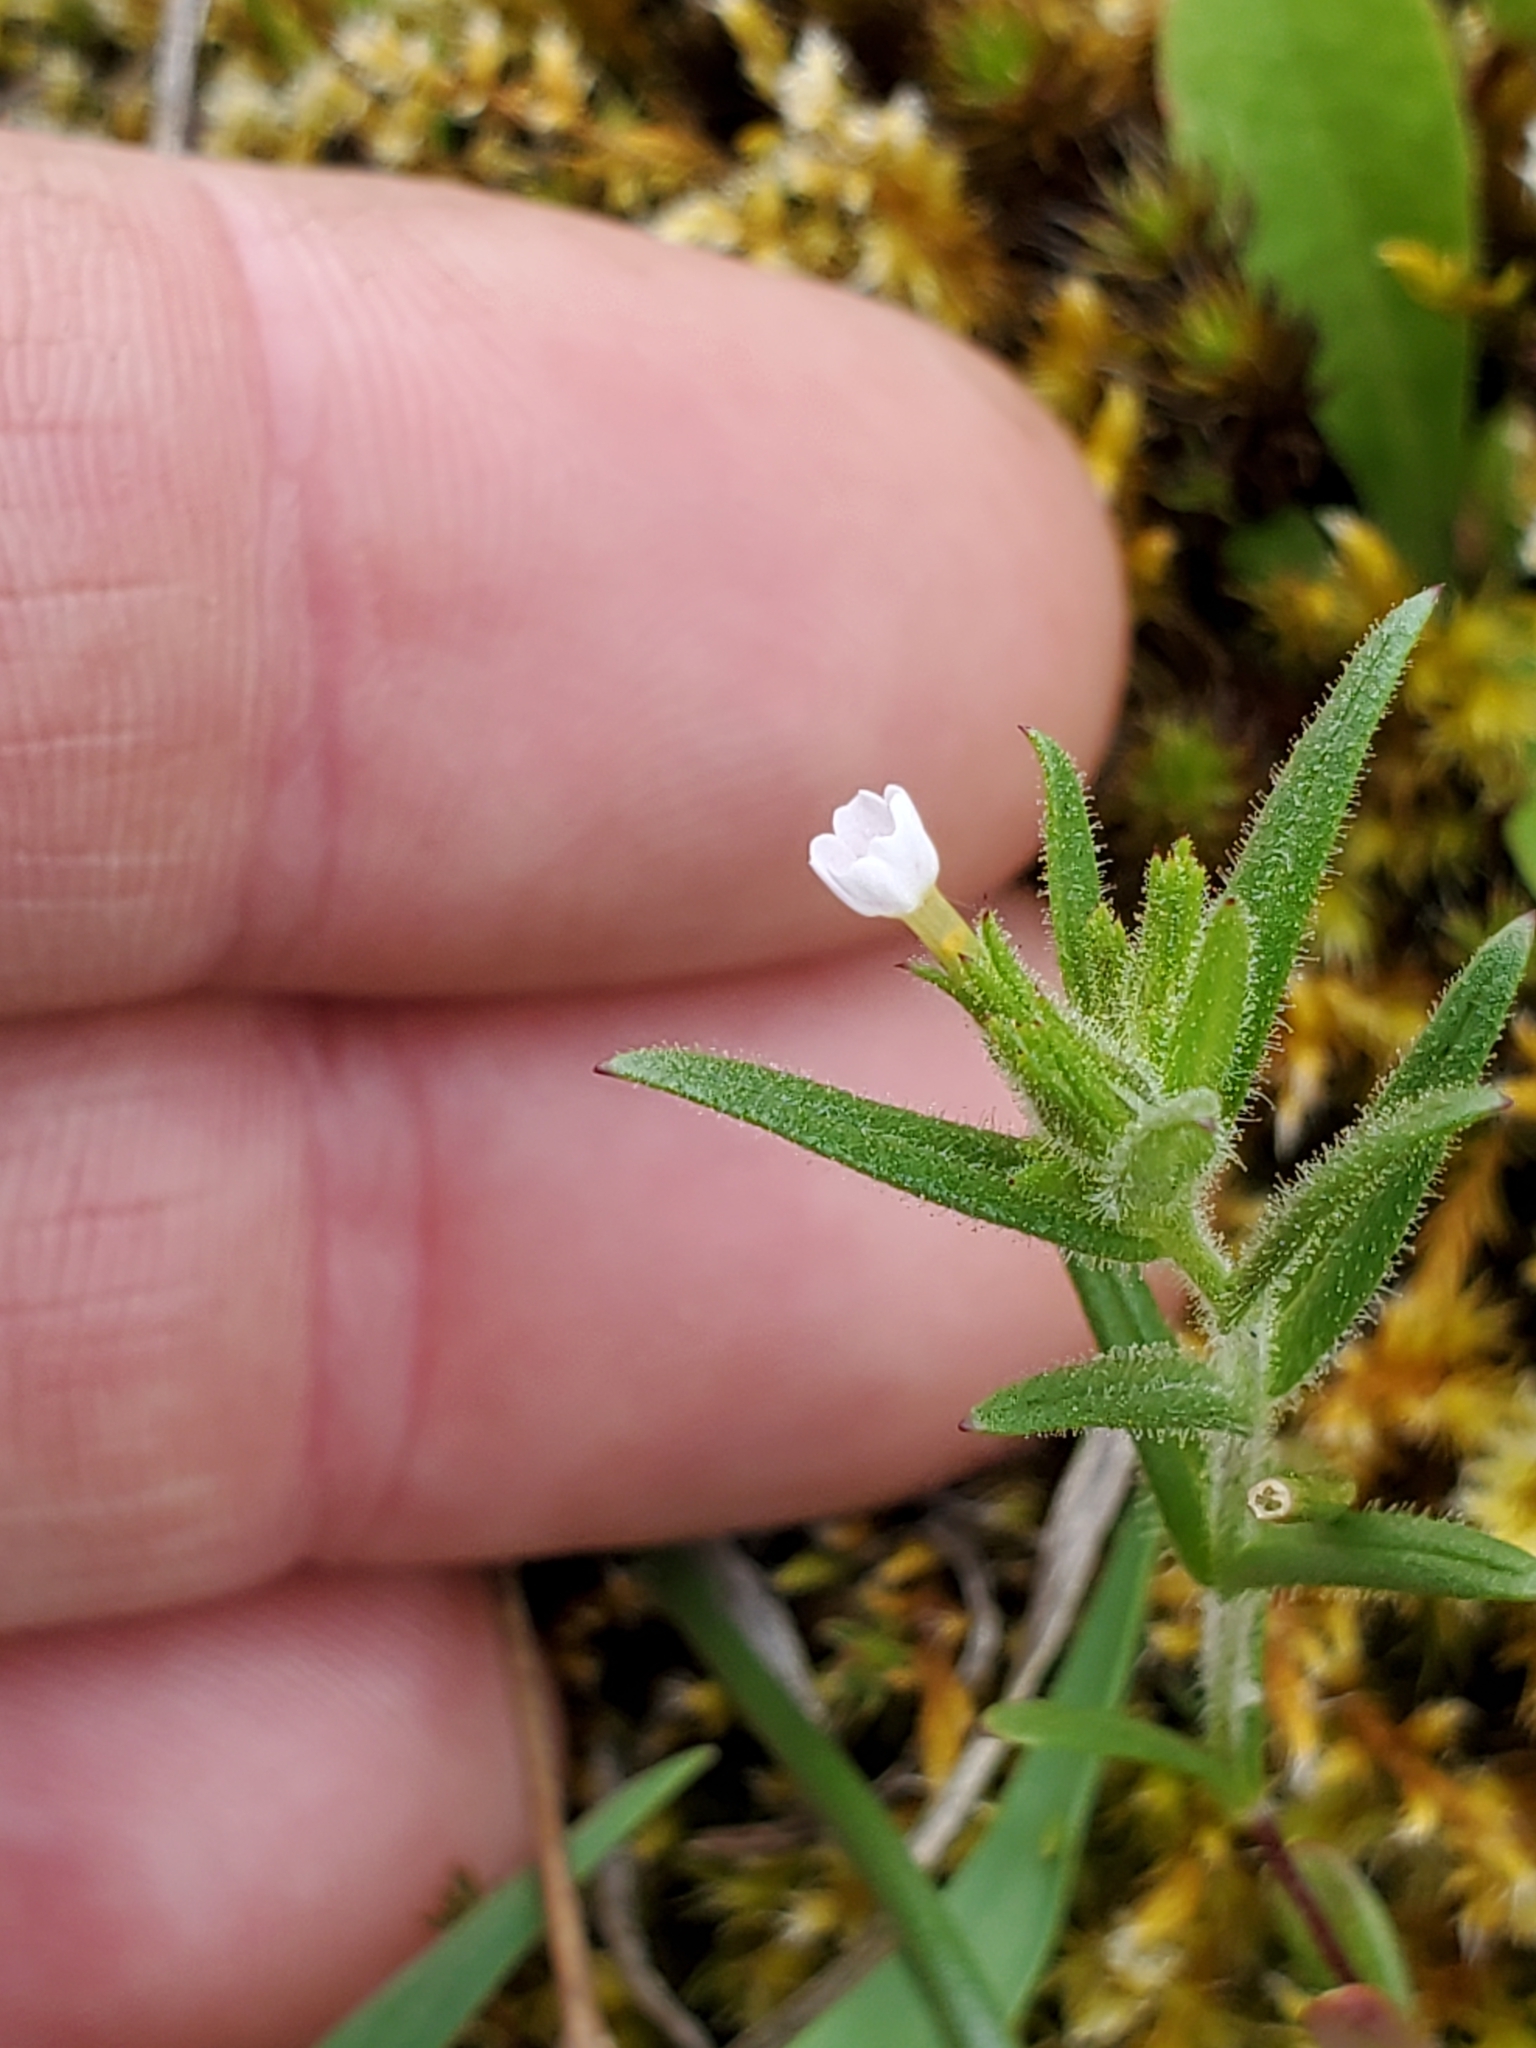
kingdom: Plantae
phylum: Tracheophyta
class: Magnoliopsida
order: Ericales
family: Polemoniaceae
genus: Phlox
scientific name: Phlox gracilis
